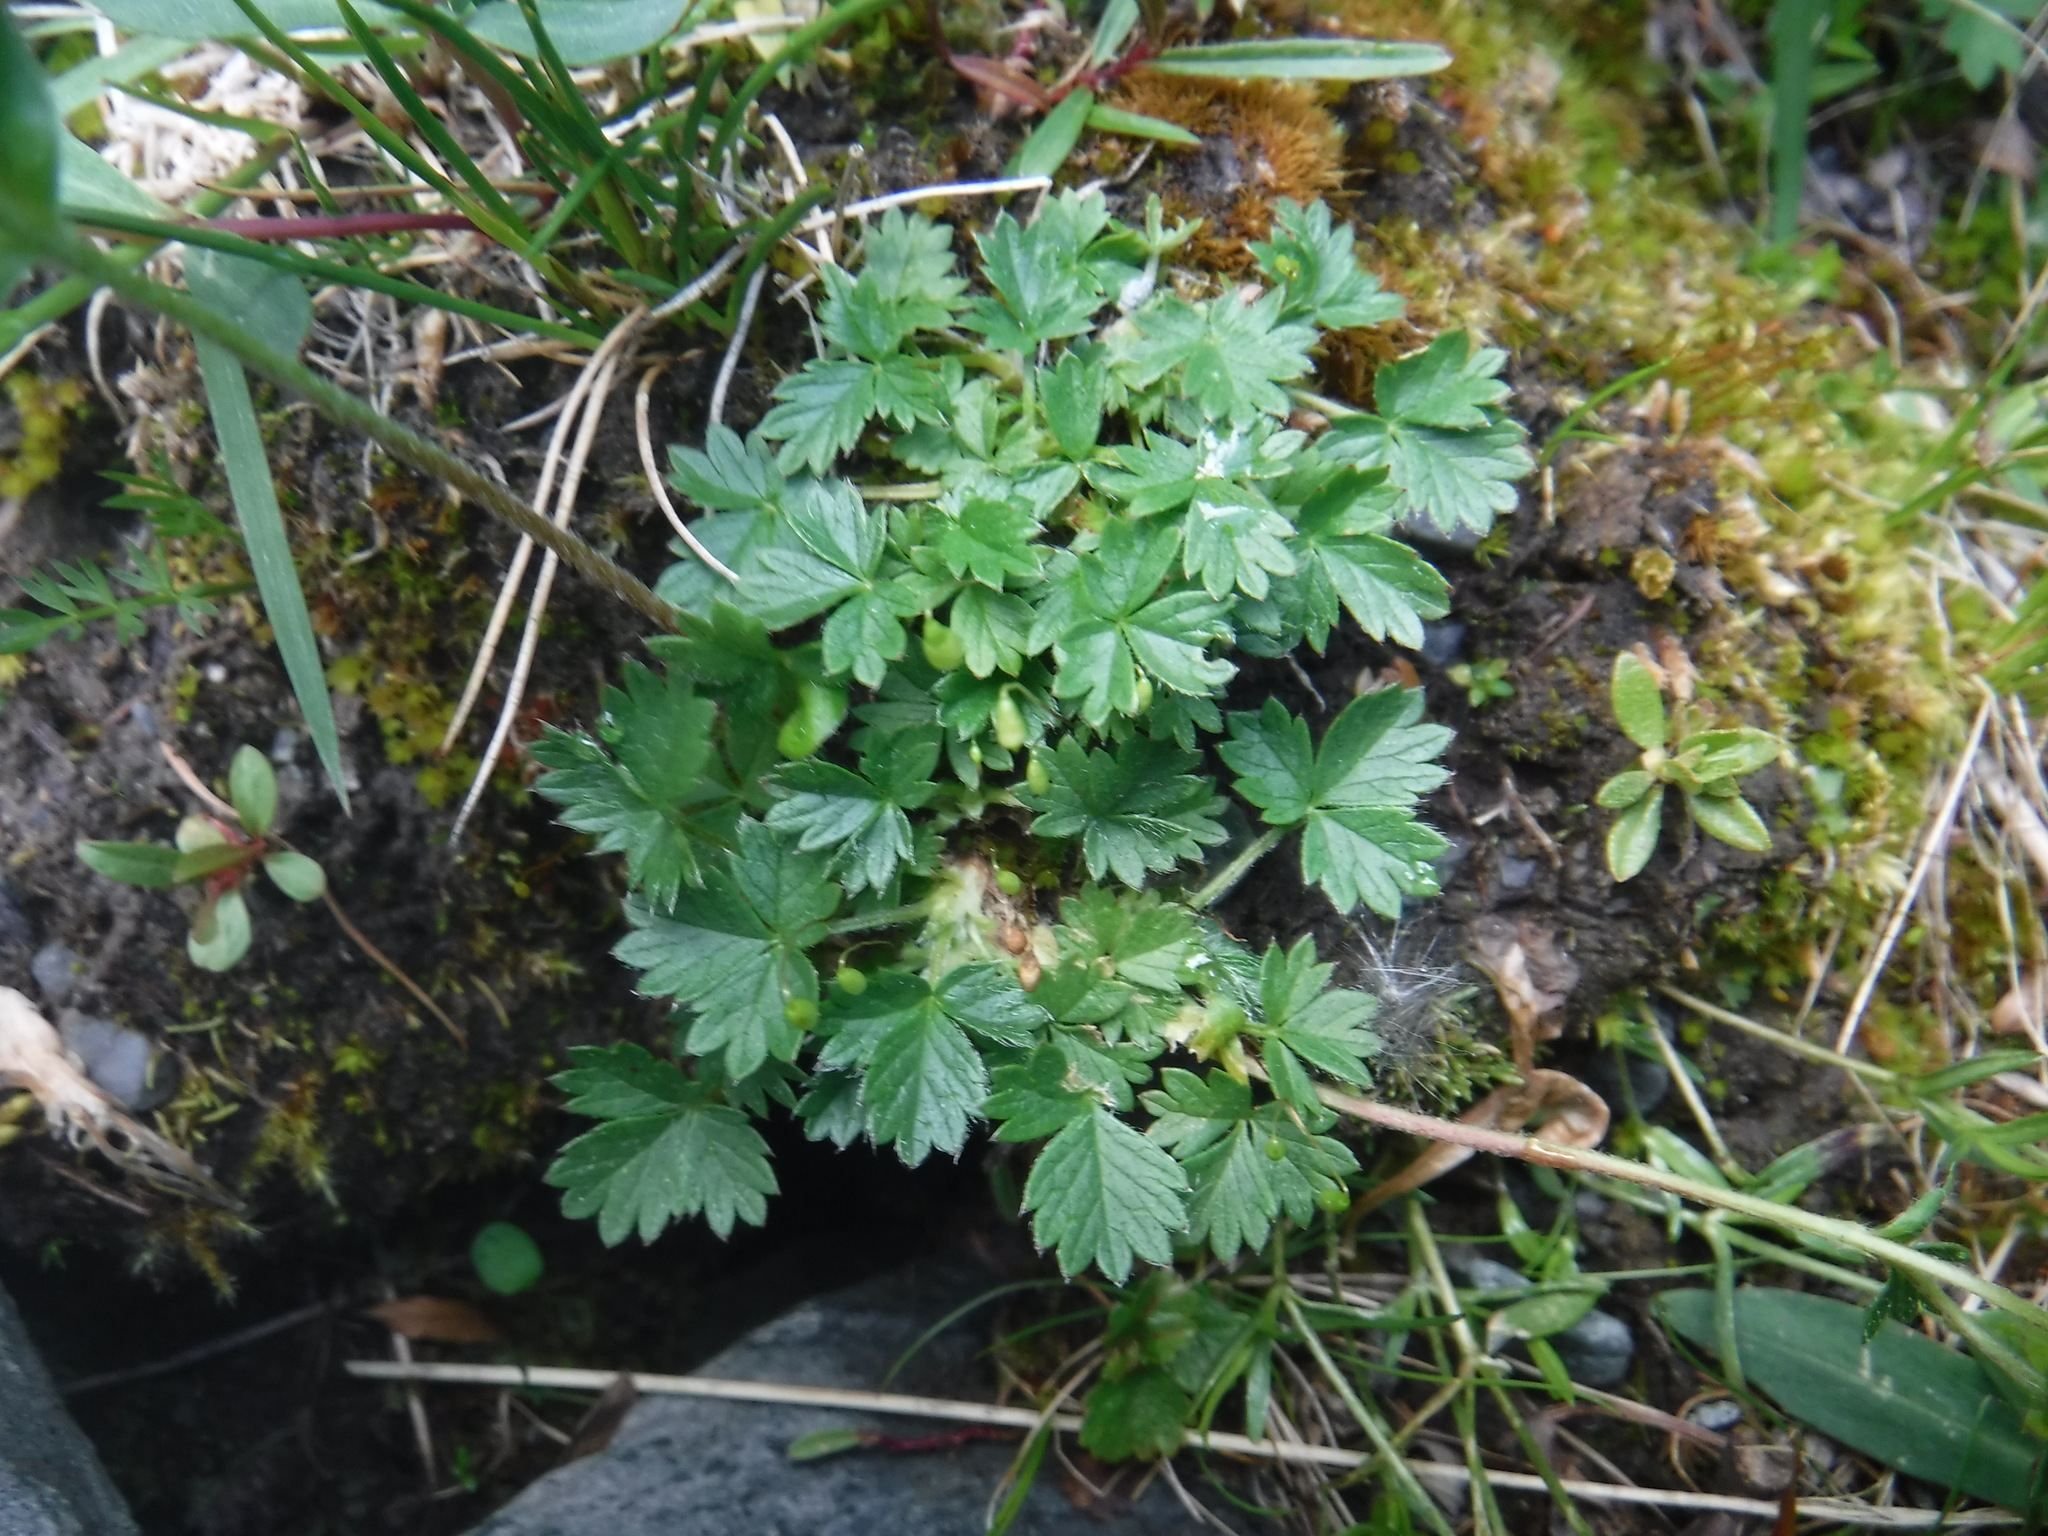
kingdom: Plantae
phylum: Tracheophyta
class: Magnoliopsida
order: Rosales
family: Rosaceae
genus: Potentilla
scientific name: Potentilla
